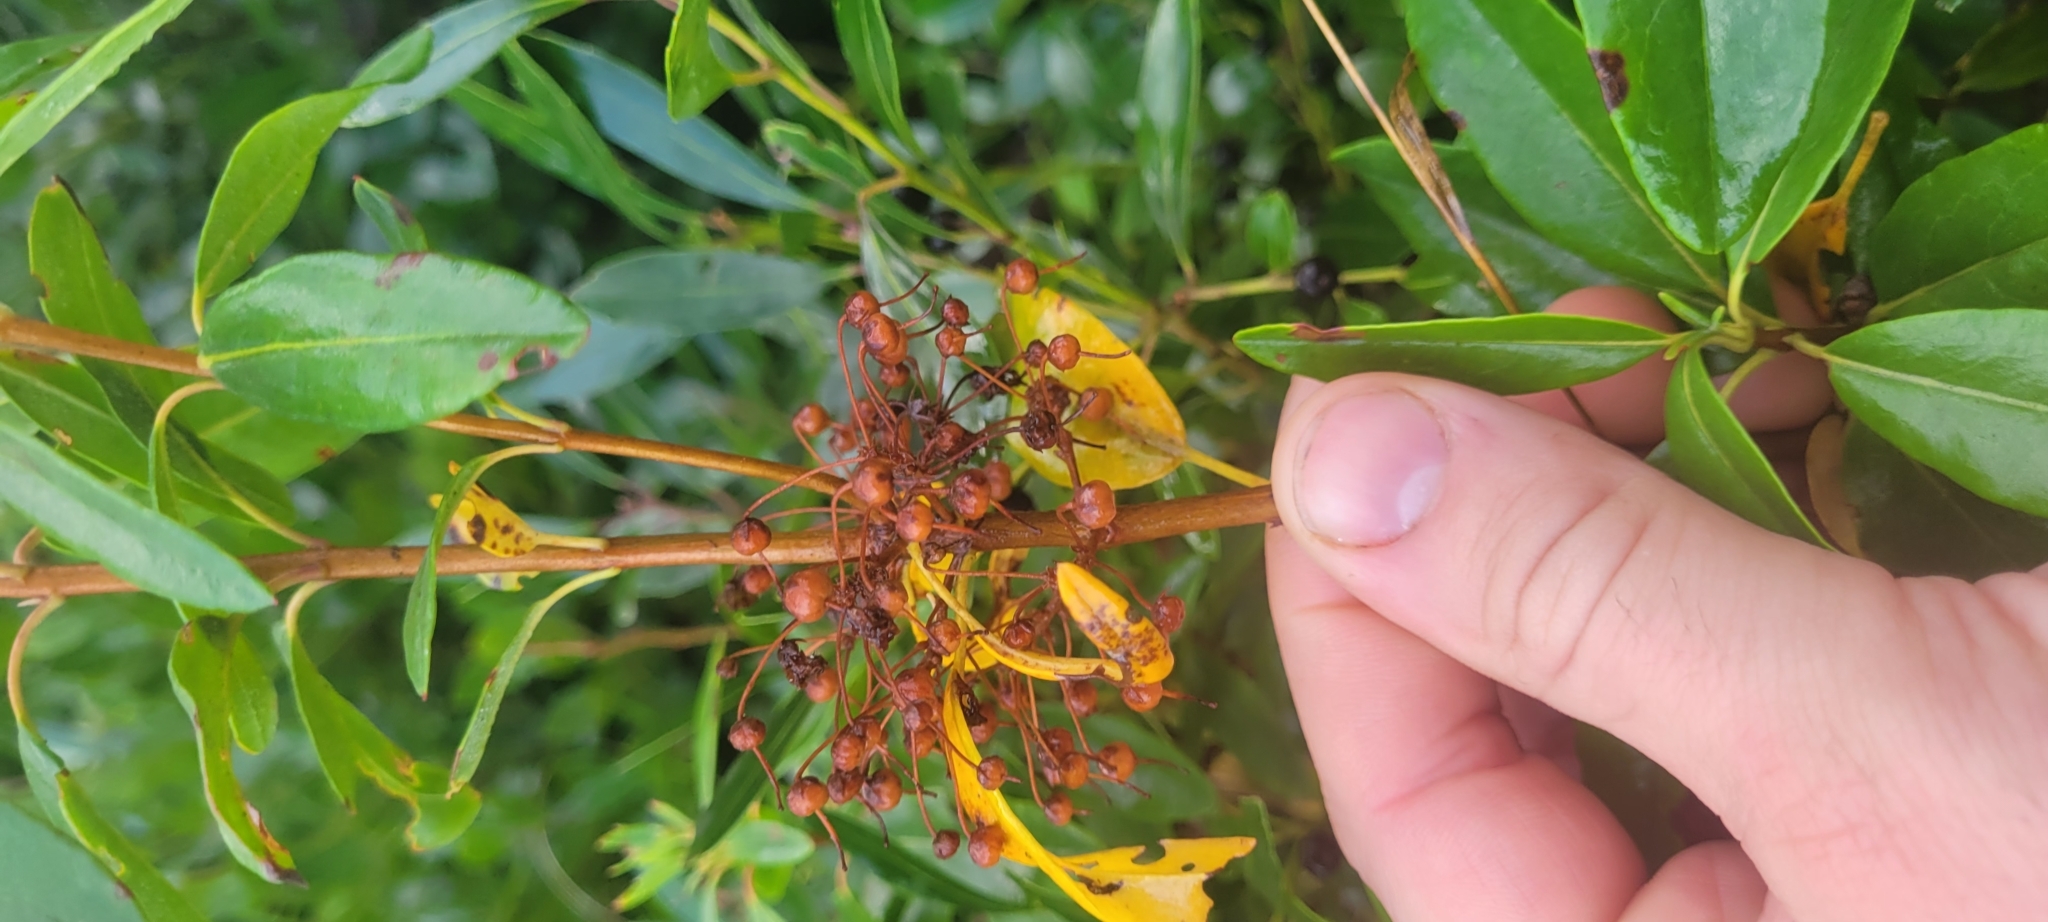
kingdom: Plantae
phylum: Tracheophyta
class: Magnoliopsida
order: Ericales
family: Ericaceae
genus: Kalmia
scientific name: Kalmia angustifolia
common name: Sheep-laurel
